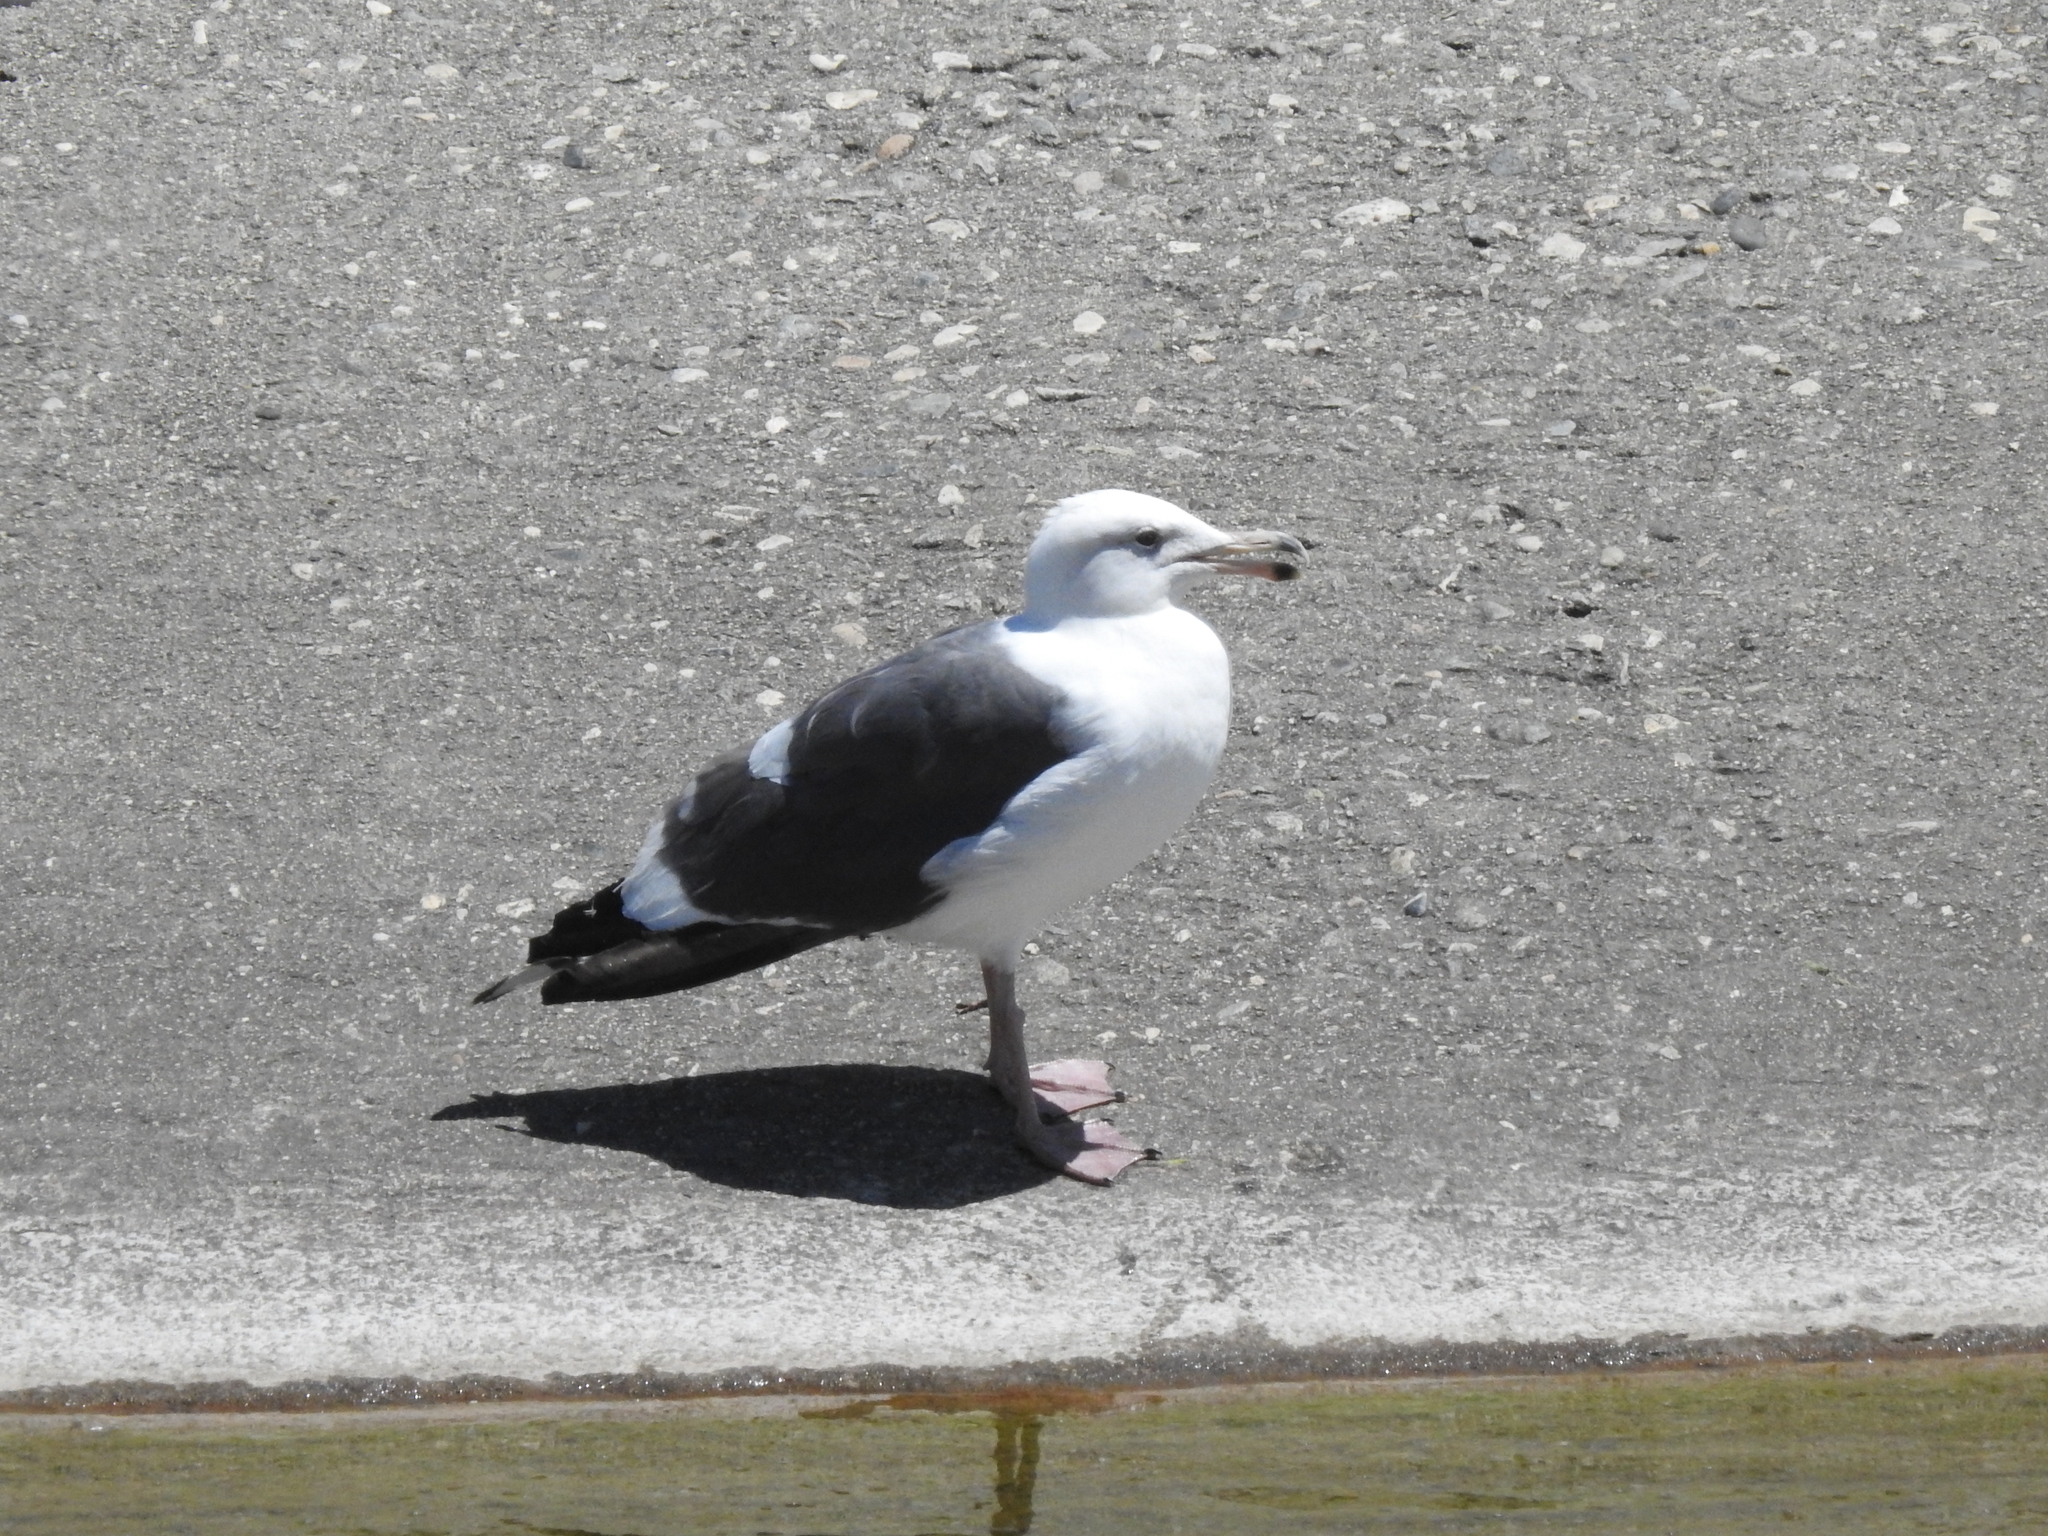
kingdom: Animalia
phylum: Chordata
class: Aves
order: Charadriiformes
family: Laridae
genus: Larus
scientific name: Larus occidentalis
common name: Western gull
